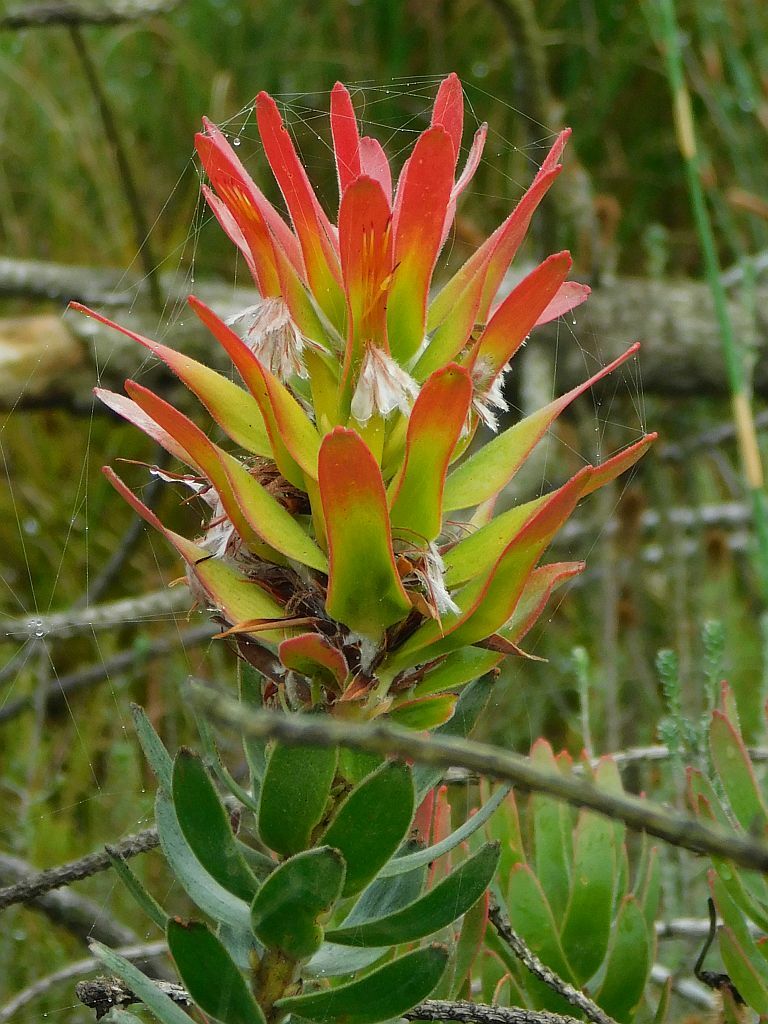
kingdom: Plantae
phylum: Tracheophyta
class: Magnoliopsida
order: Proteales
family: Proteaceae
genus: Mimetes
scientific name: Mimetes cucullatus
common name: Common pagoda
